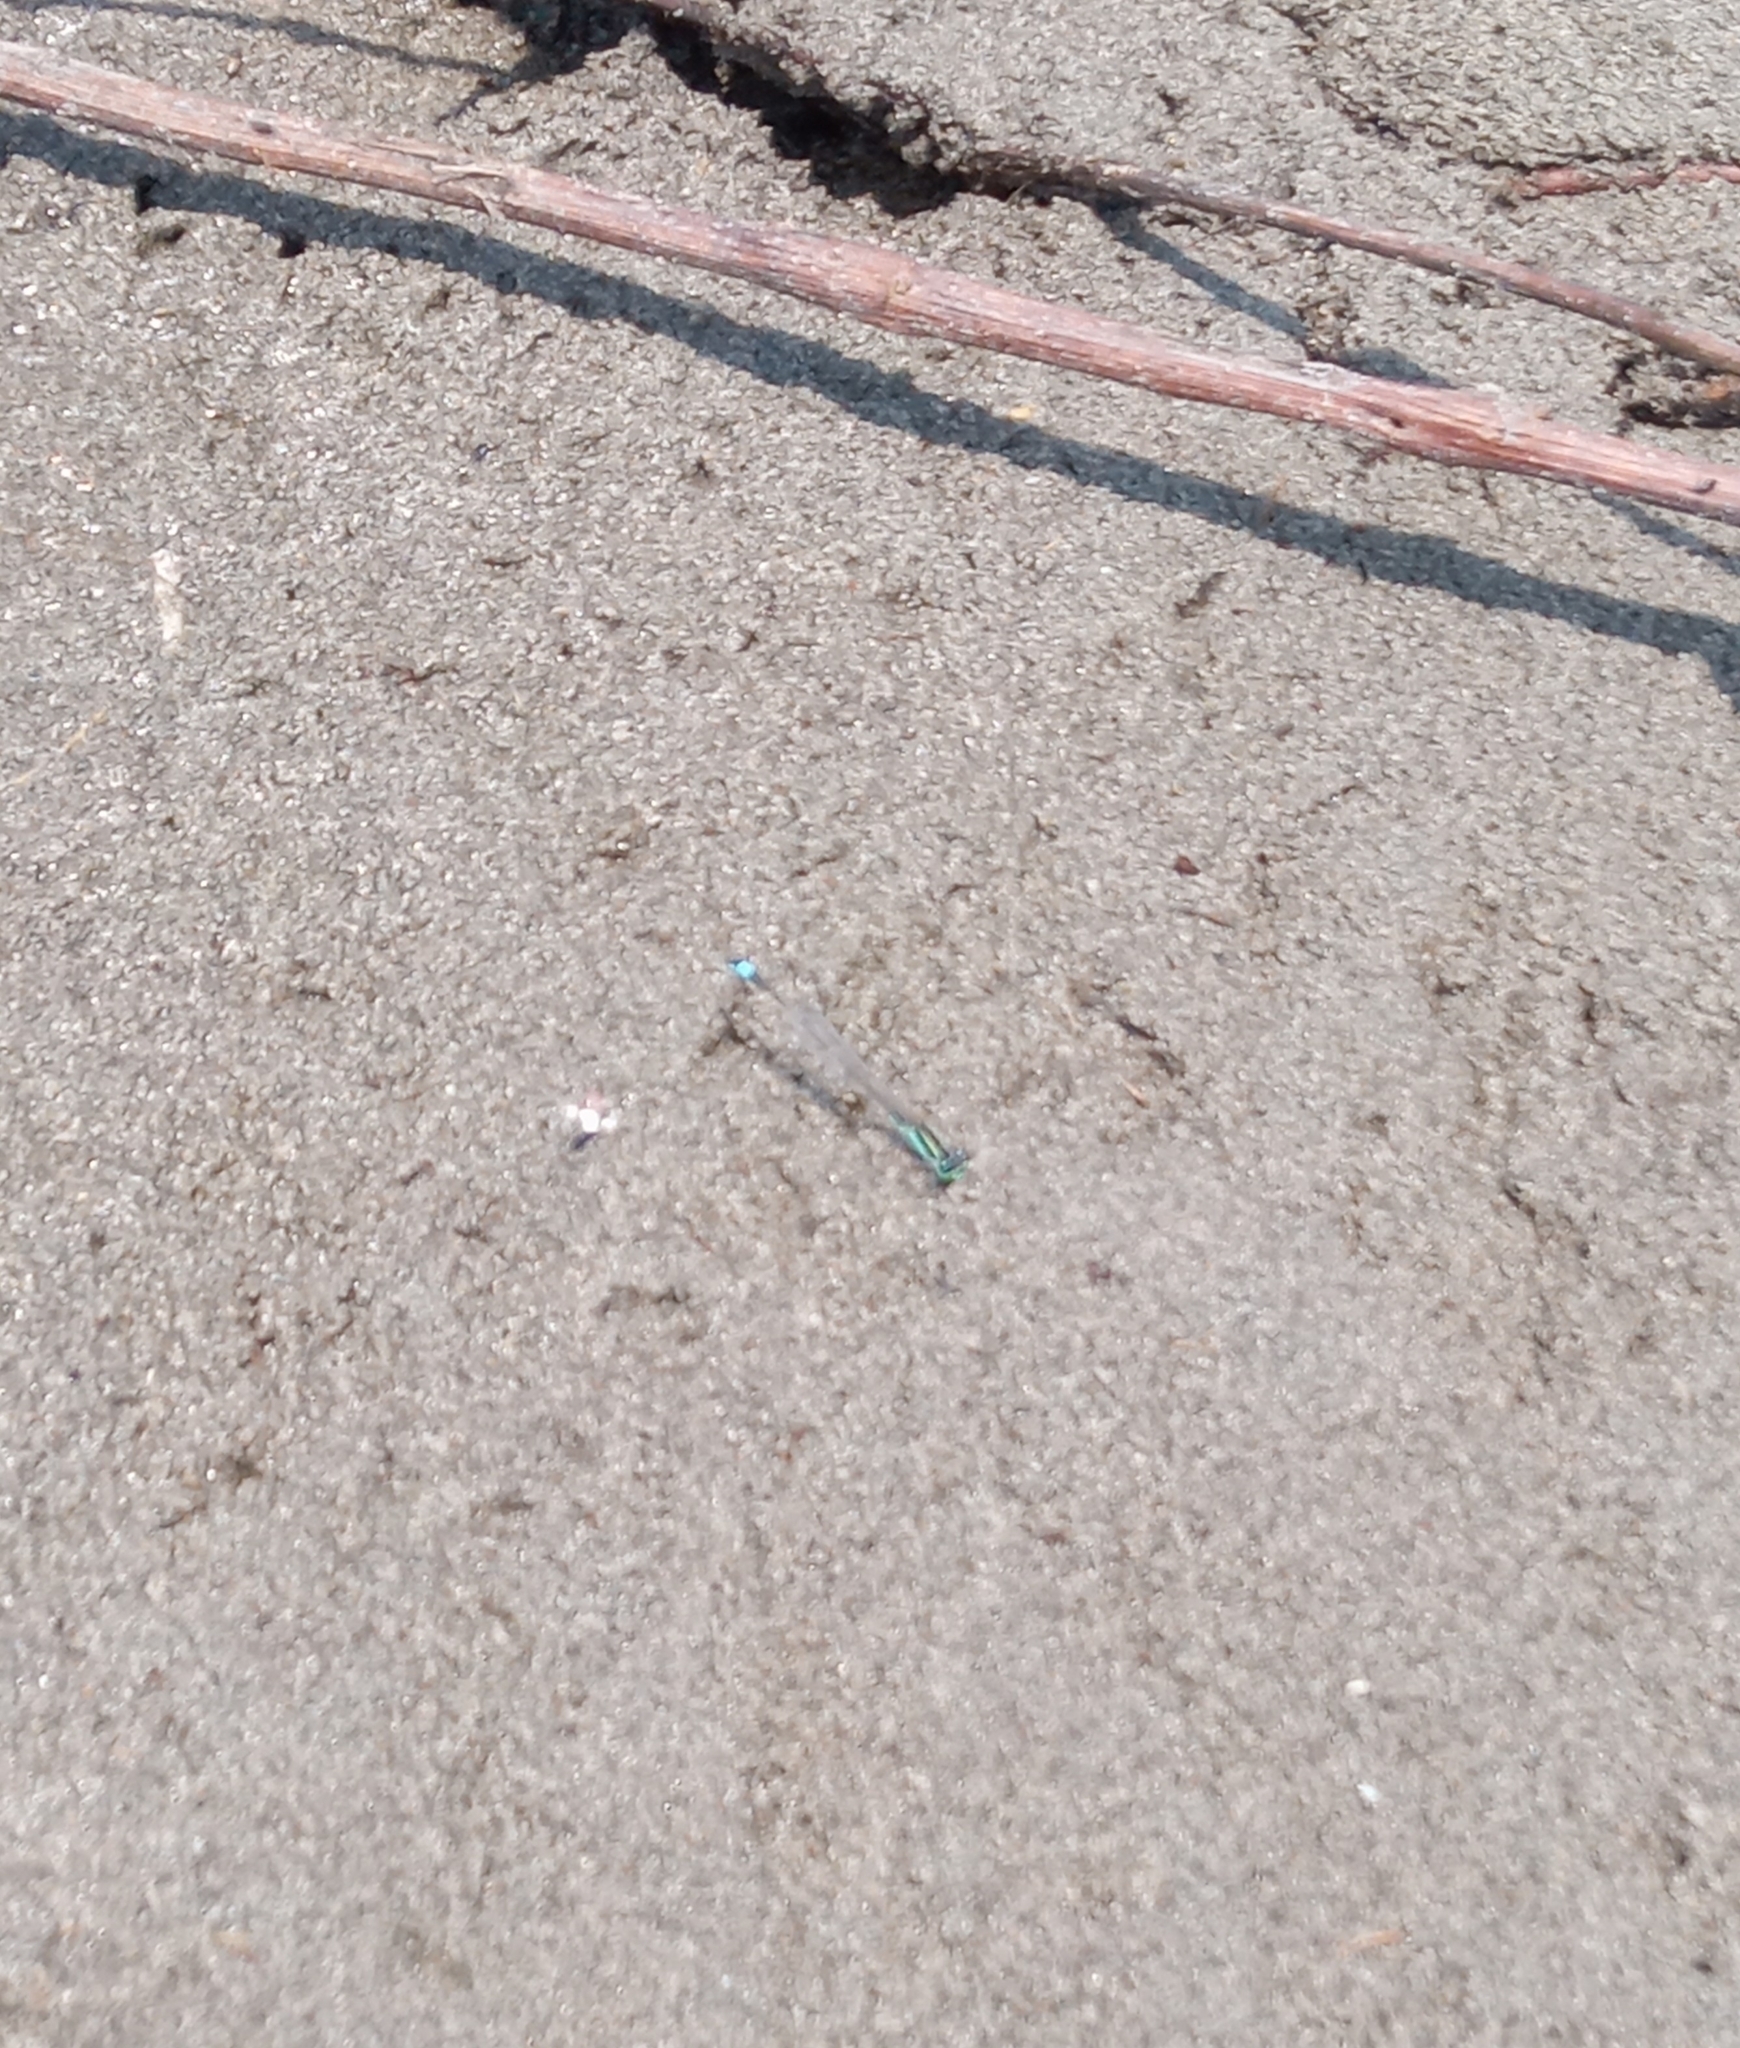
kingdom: Animalia
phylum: Arthropoda
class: Insecta
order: Odonata
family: Coenagrionidae
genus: Ischnura
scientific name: Ischnura ramburii
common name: Rambur's forktail
